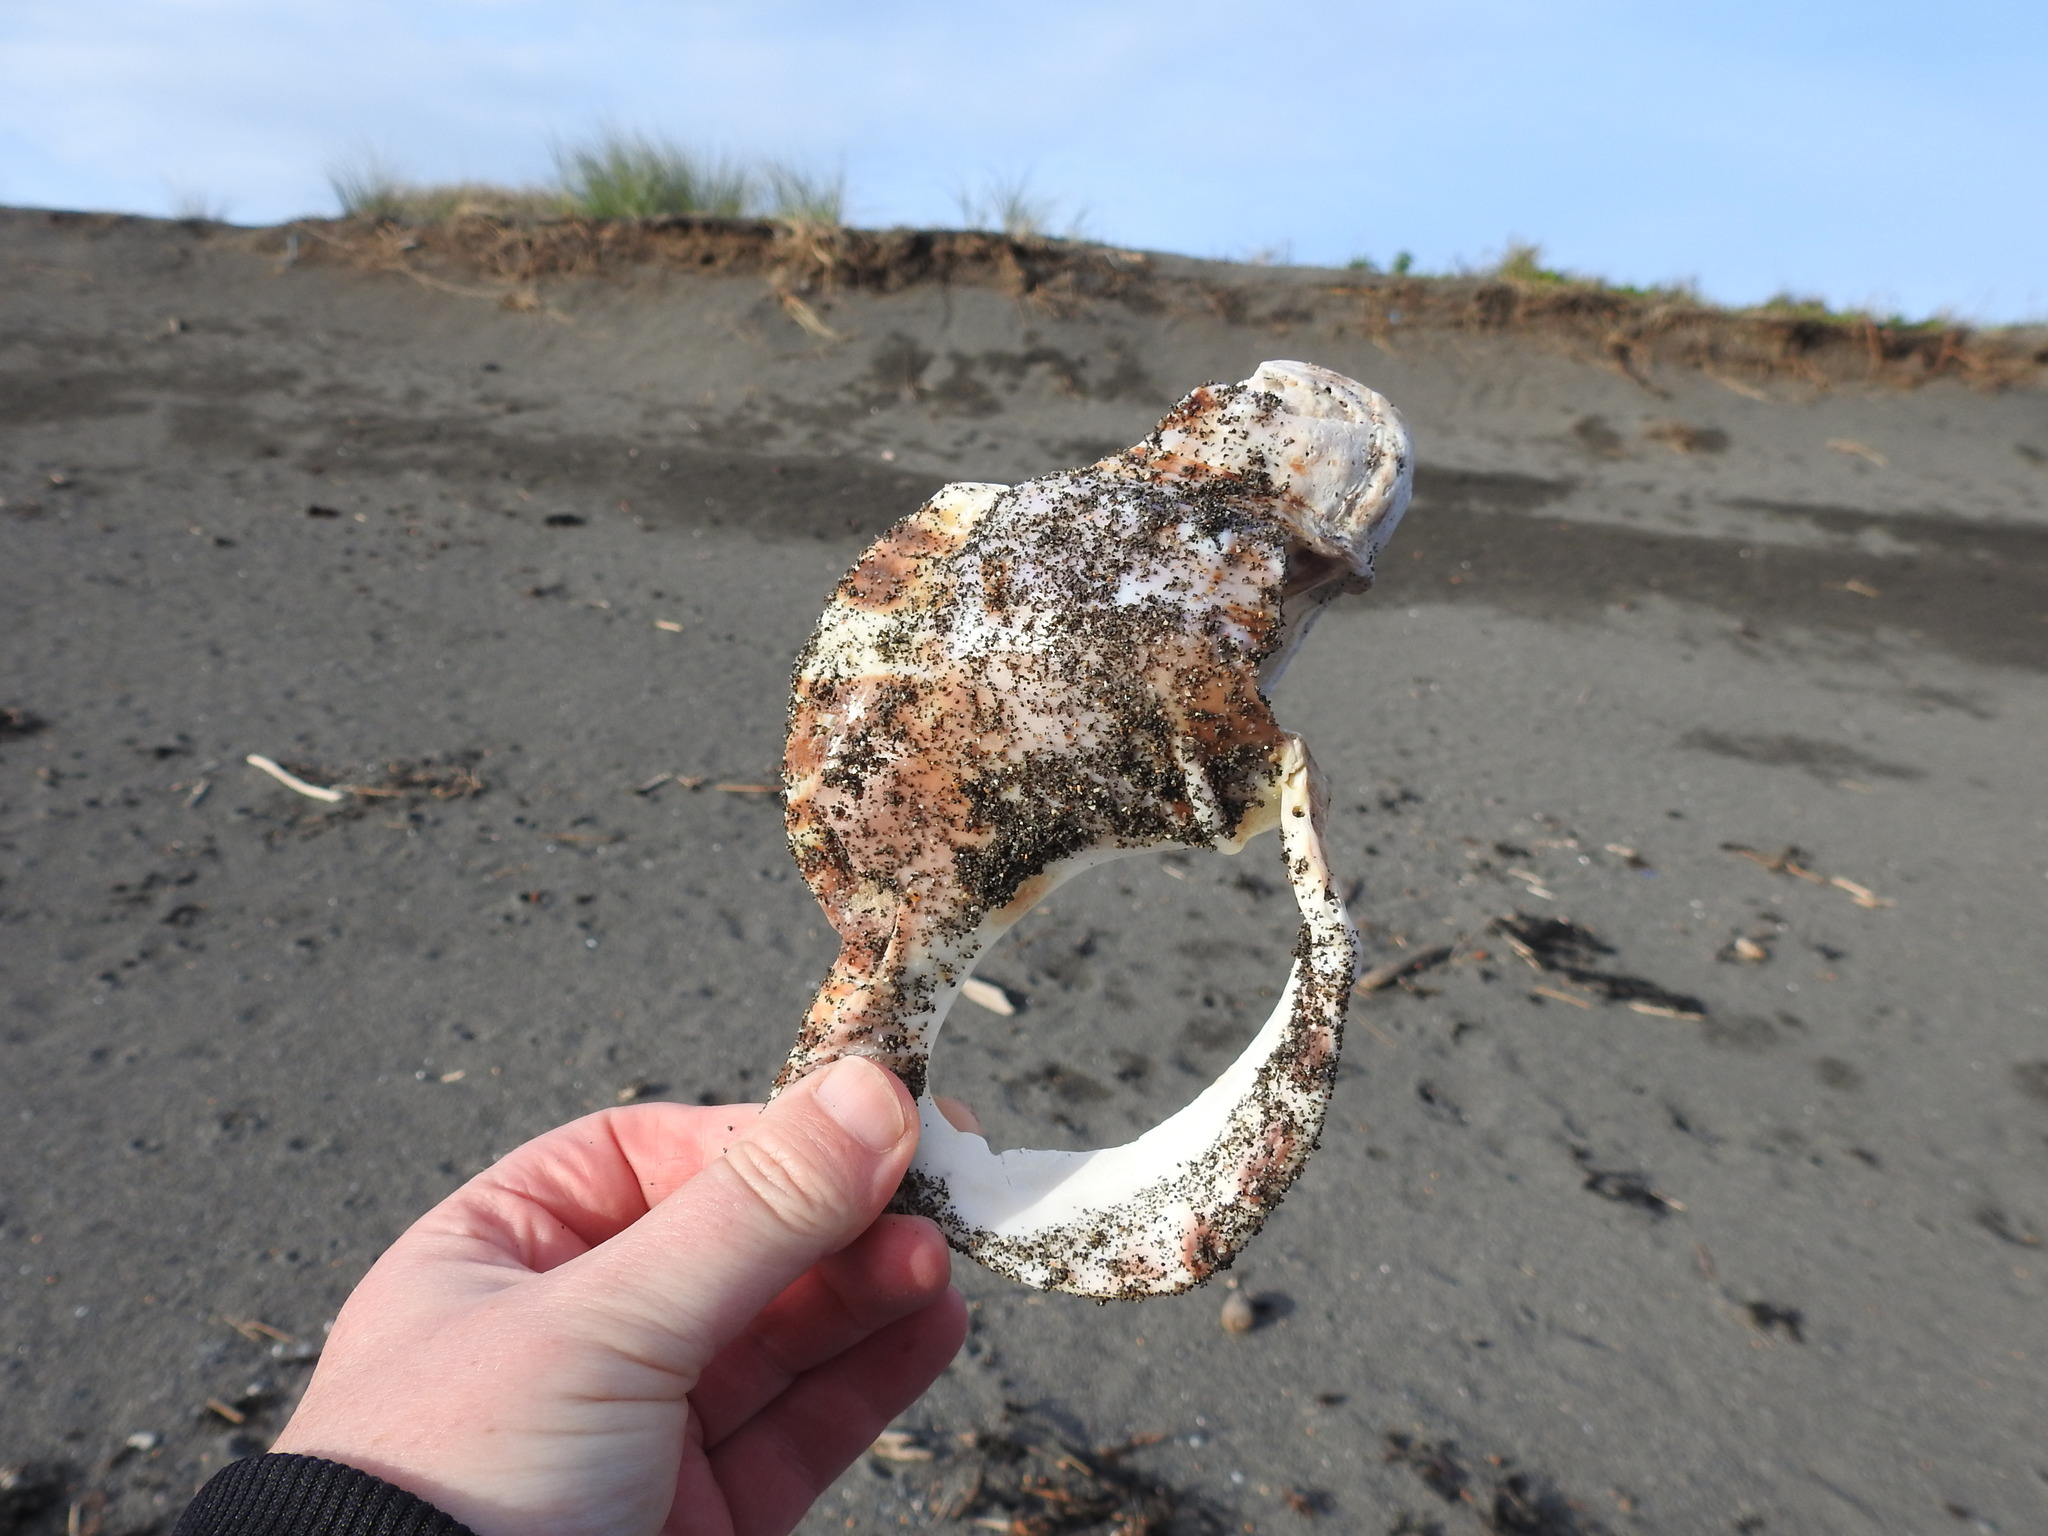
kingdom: Animalia
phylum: Mollusca
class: Gastropoda
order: Littorinimorpha
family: Charoniidae
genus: Charonia
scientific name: Charonia lampas
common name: Knobbed triton
